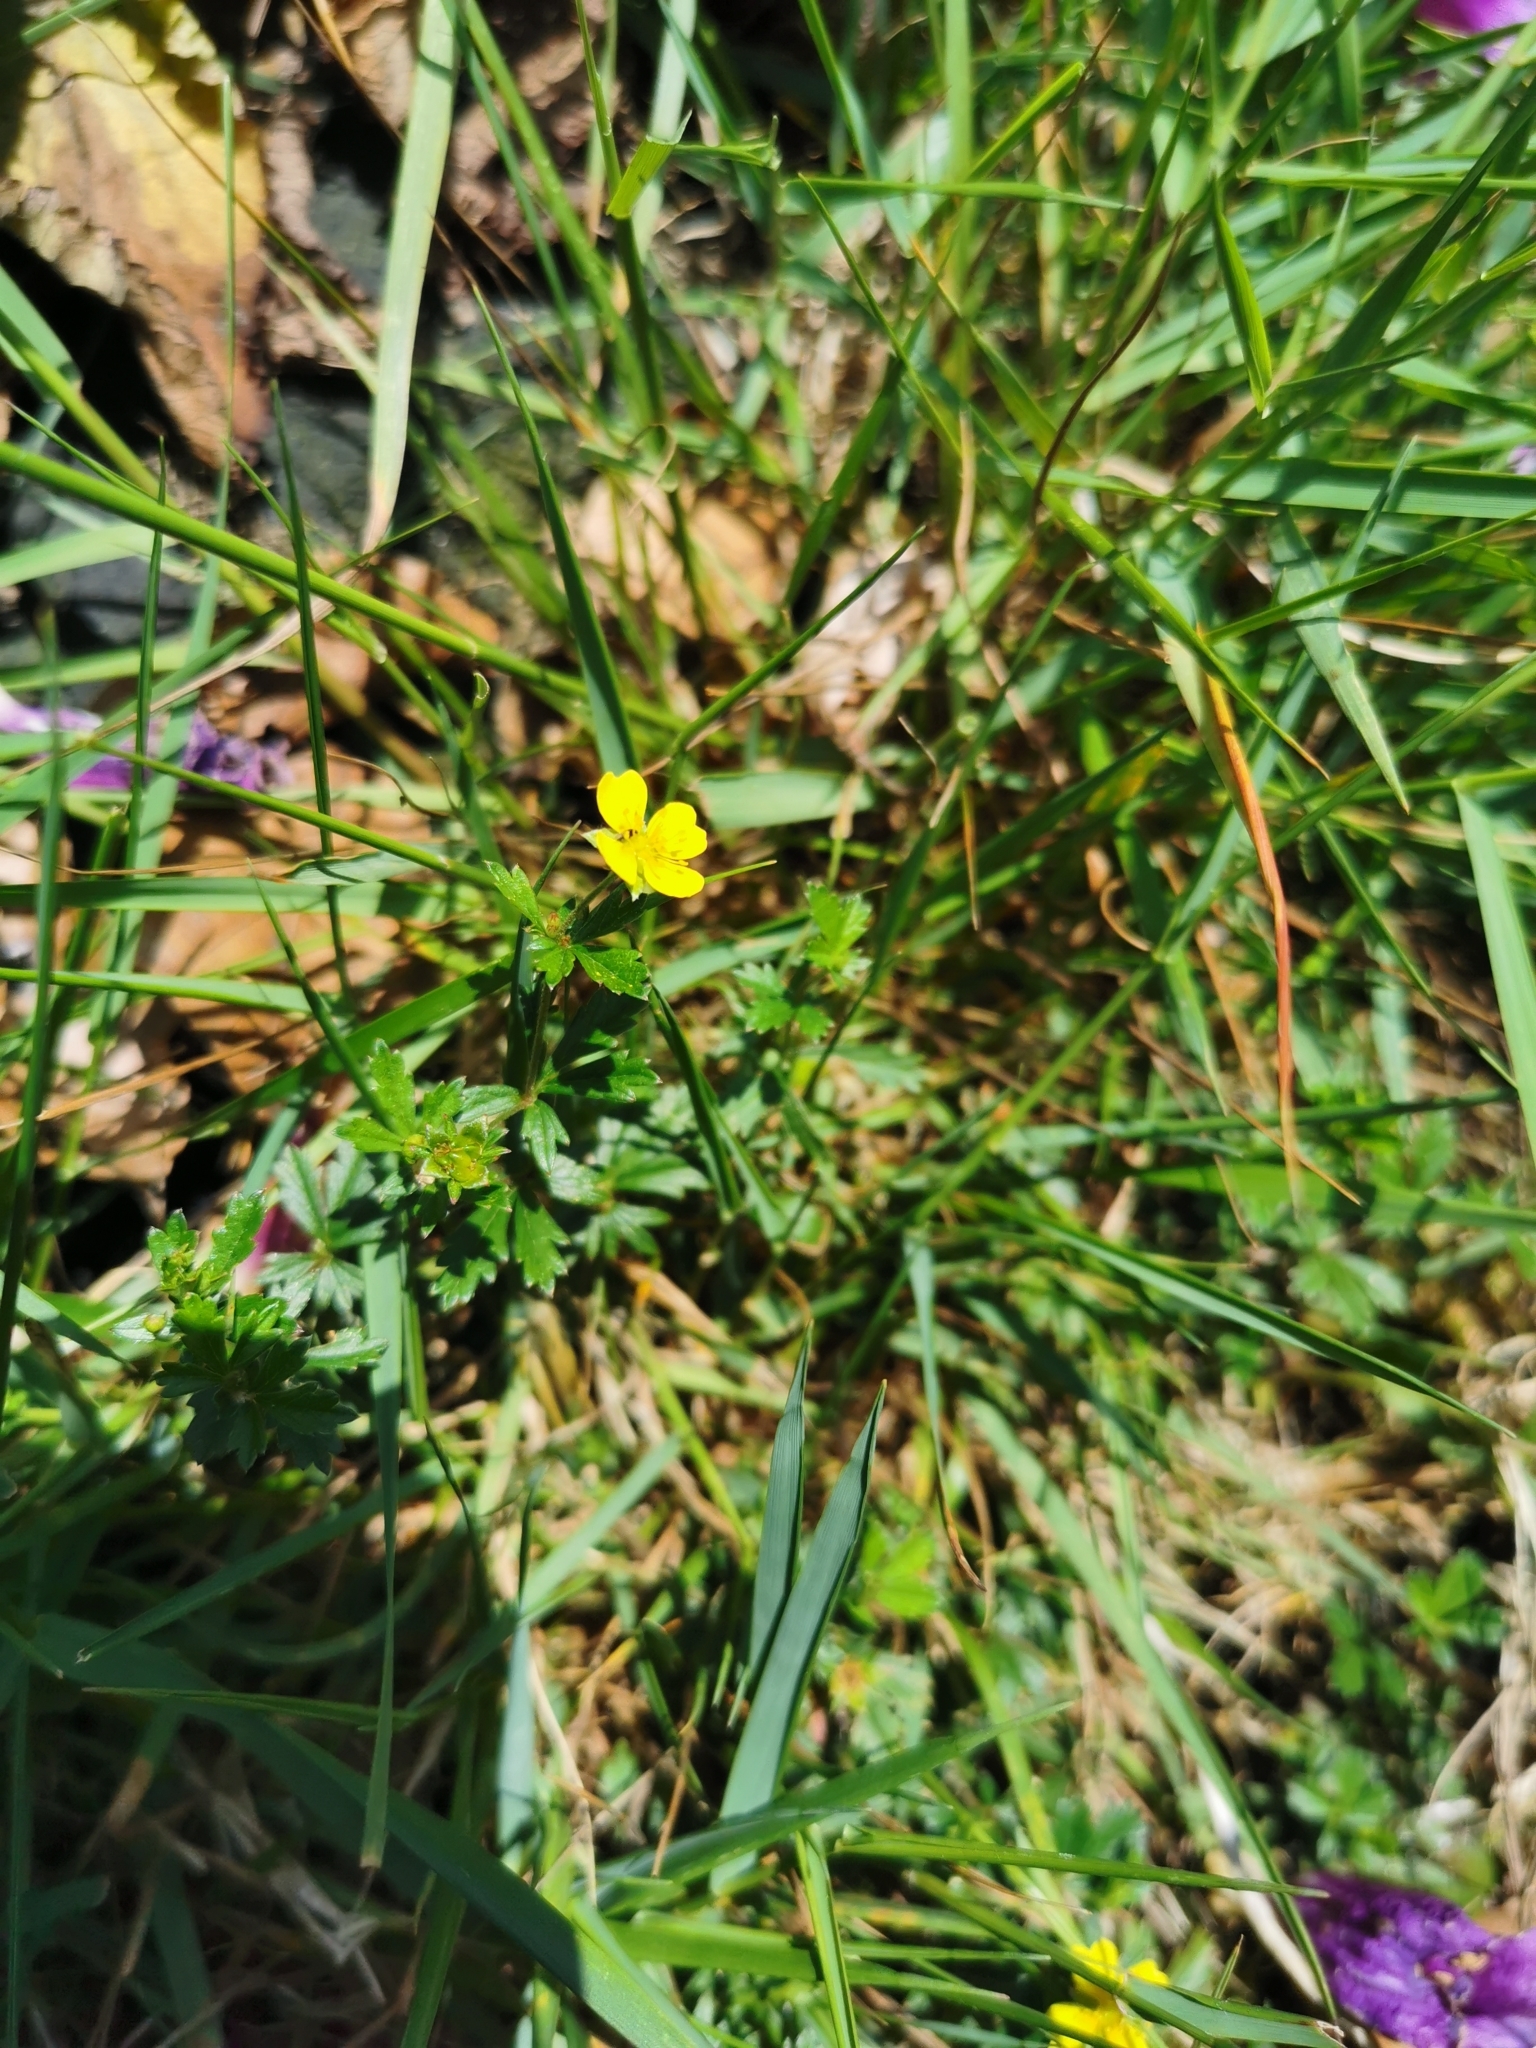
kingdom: Plantae
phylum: Tracheophyta
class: Magnoliopsida
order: Rosales
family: Rosaceae
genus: Potentilla
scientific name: Potentilla erecta
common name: Tormentil
